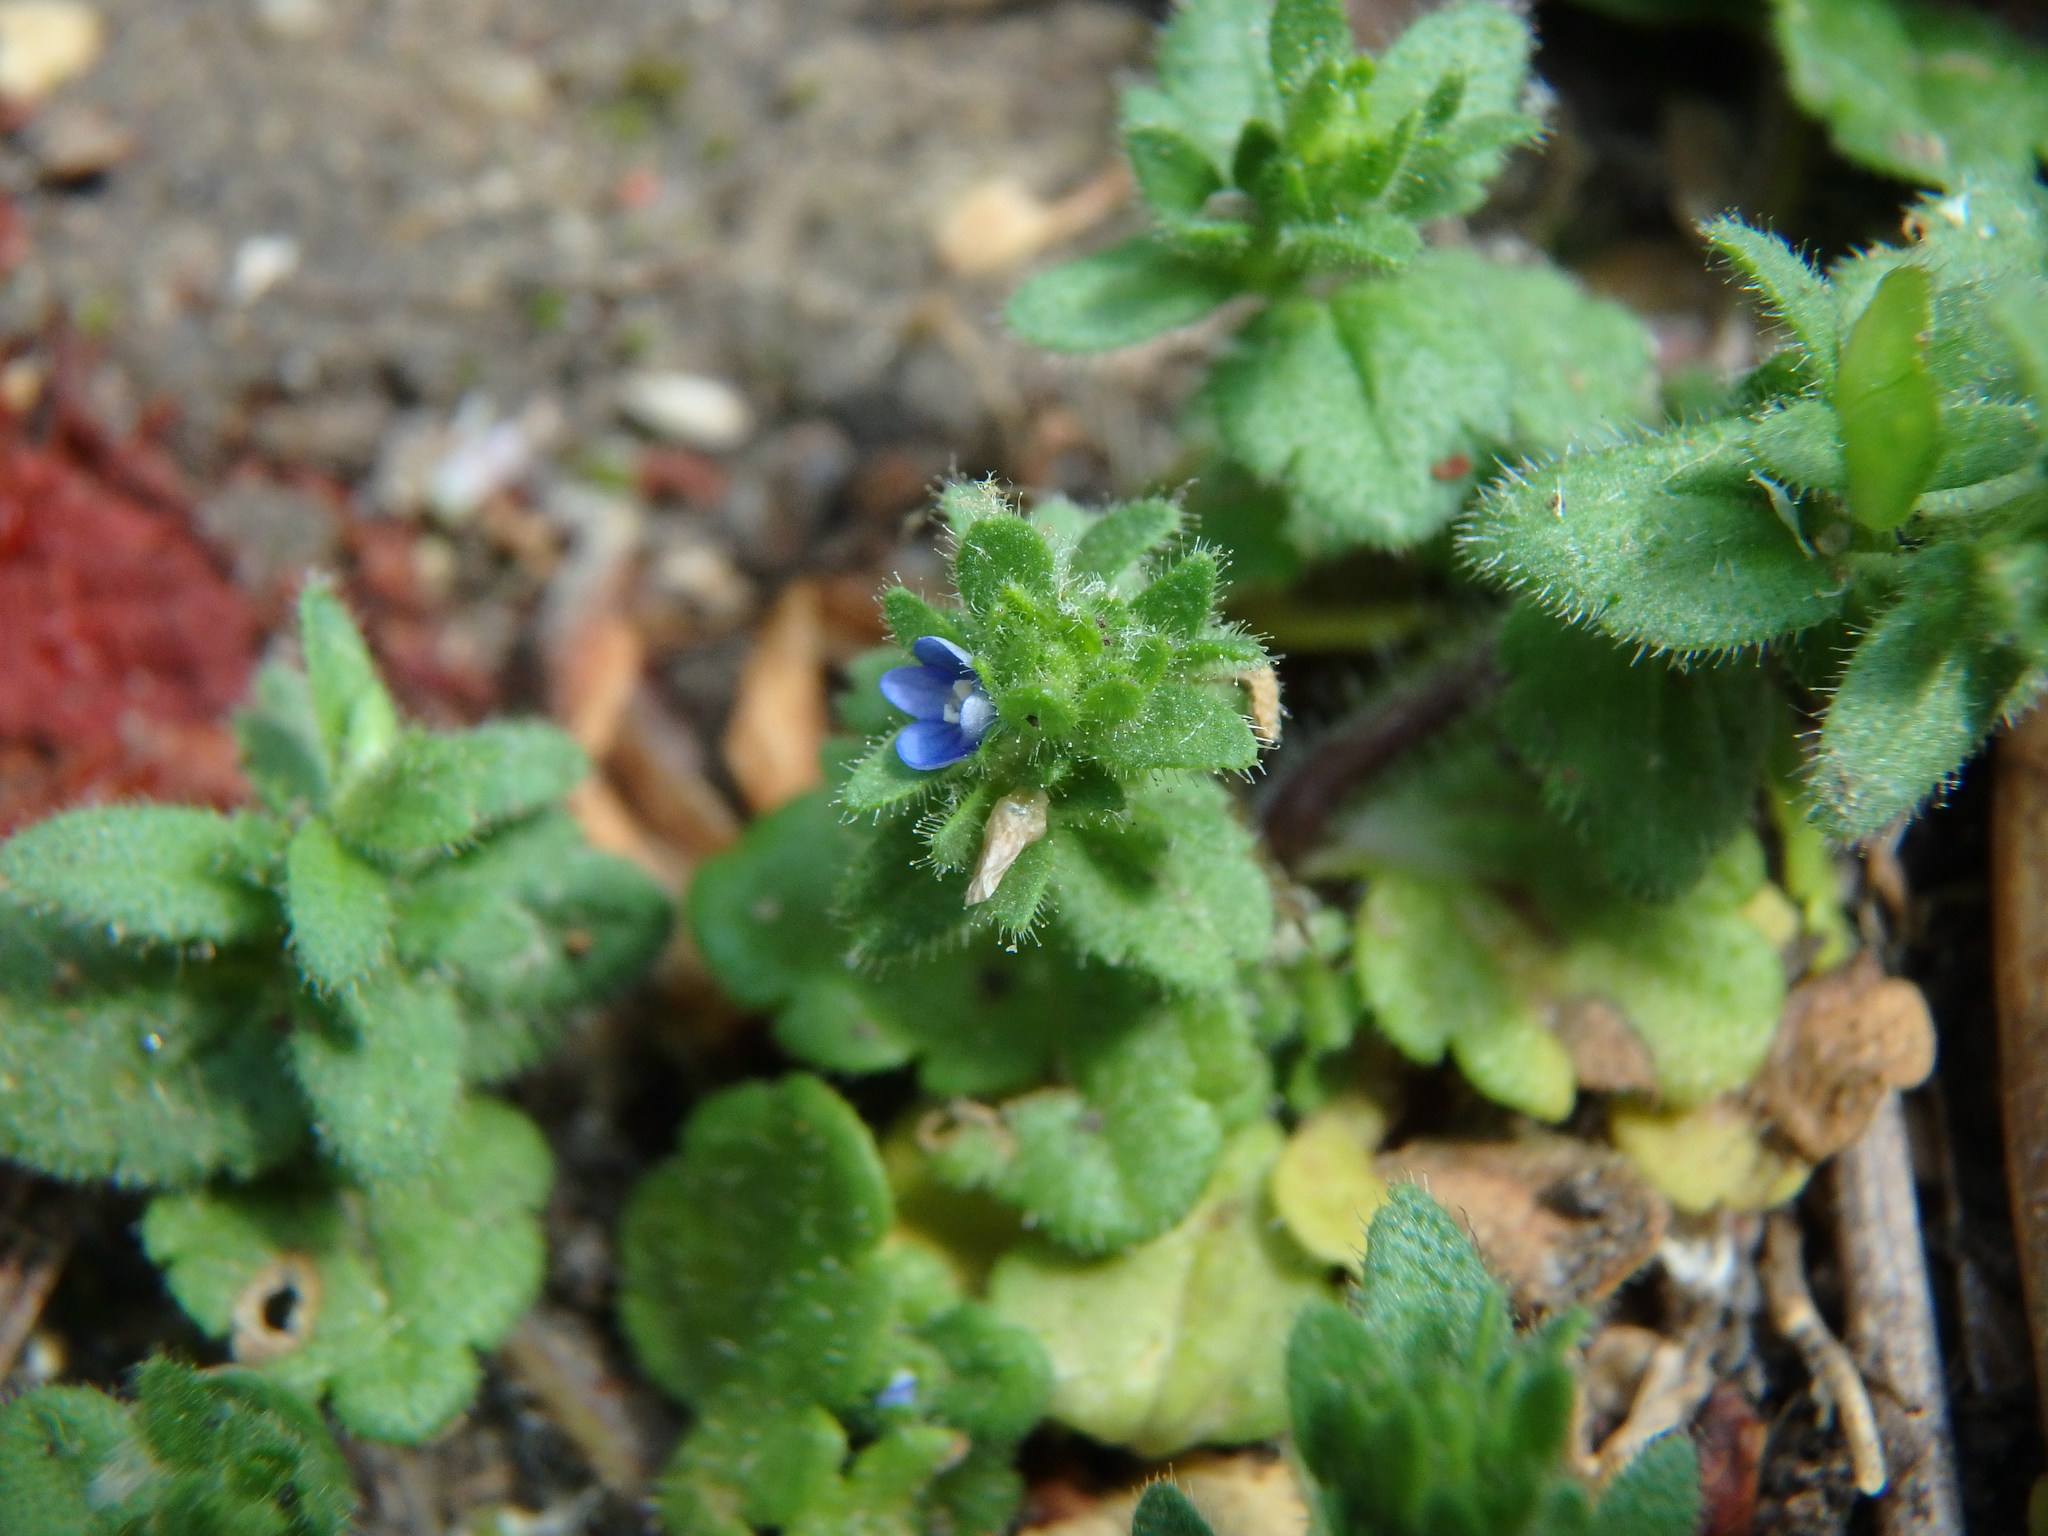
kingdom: Plantae
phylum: Tracheophyta
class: Magnoliopsida
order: Lamiales
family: Plantaginaceae
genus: Veronica
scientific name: Veronica arvensis
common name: Corn speedwell
